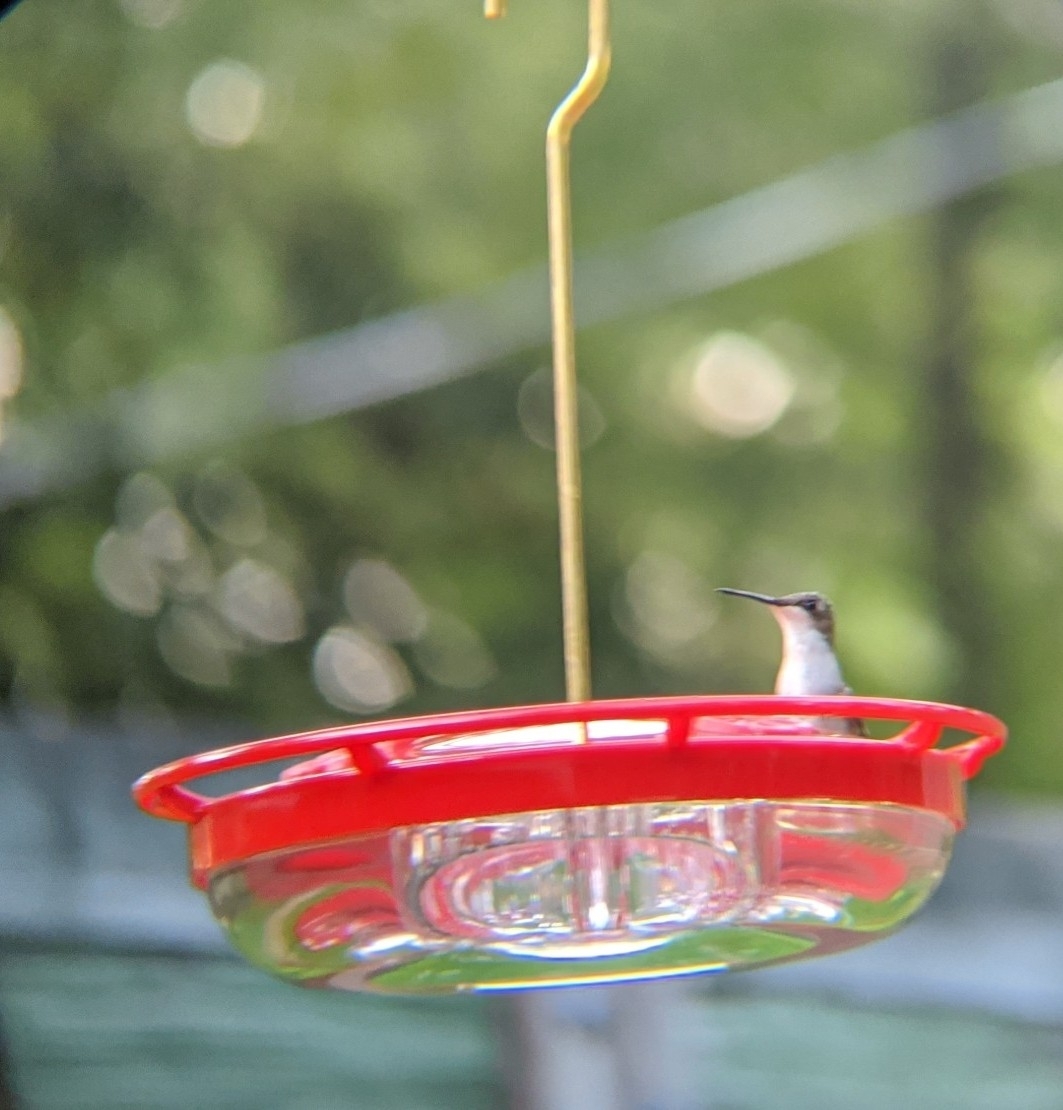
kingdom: Animalia
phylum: Chordata
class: Aves
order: Apodiformes
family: Trochilidae
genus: Archilochus
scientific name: Archilochus colubris
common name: Ruby-throated hummingbird
